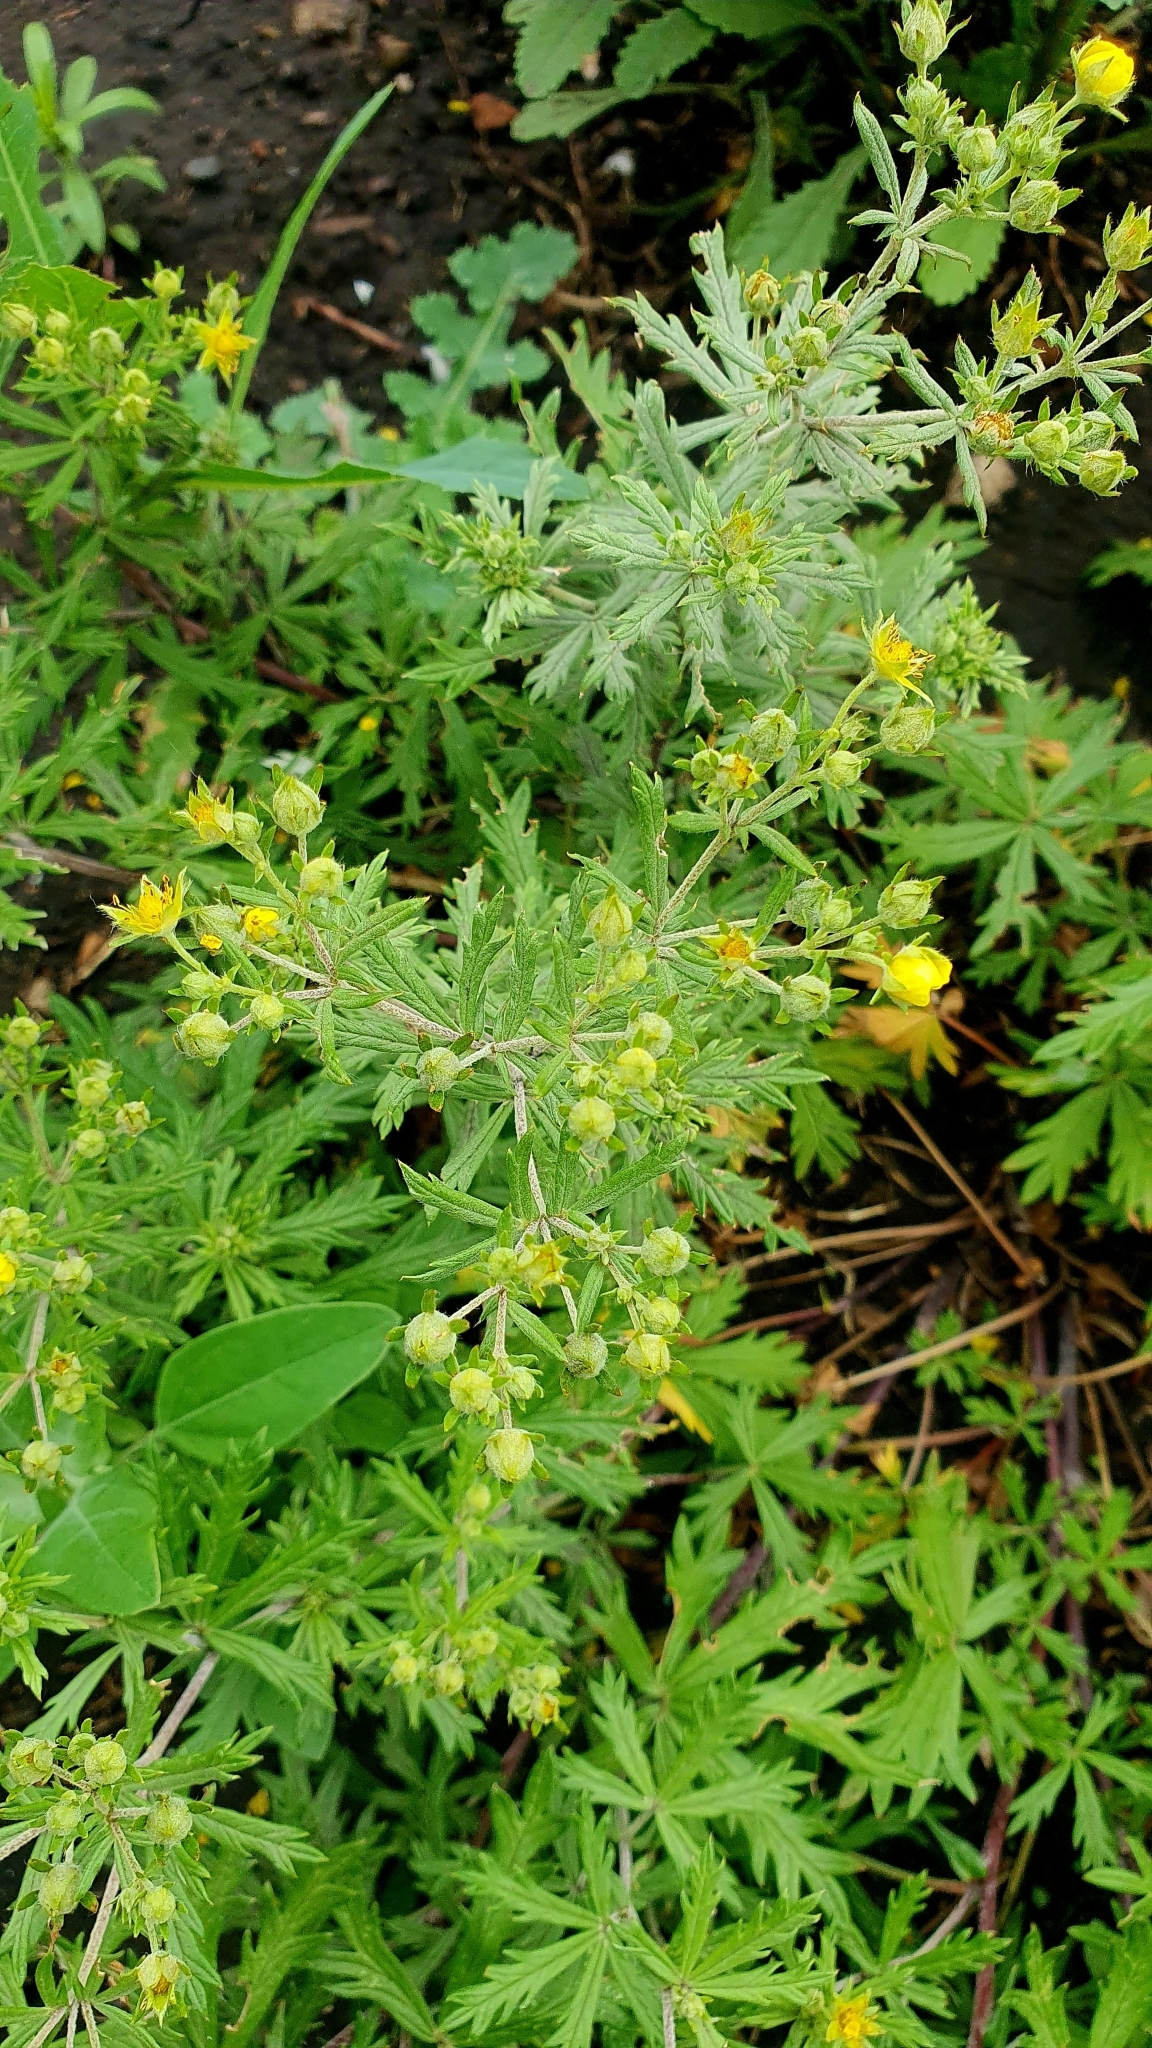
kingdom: Plantae
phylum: Tracheophyta
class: Magnoliopsida
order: Rosales
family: Rosaceae
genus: Potentilla
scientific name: Potentilla argentea
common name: Hoary cinquefoil
